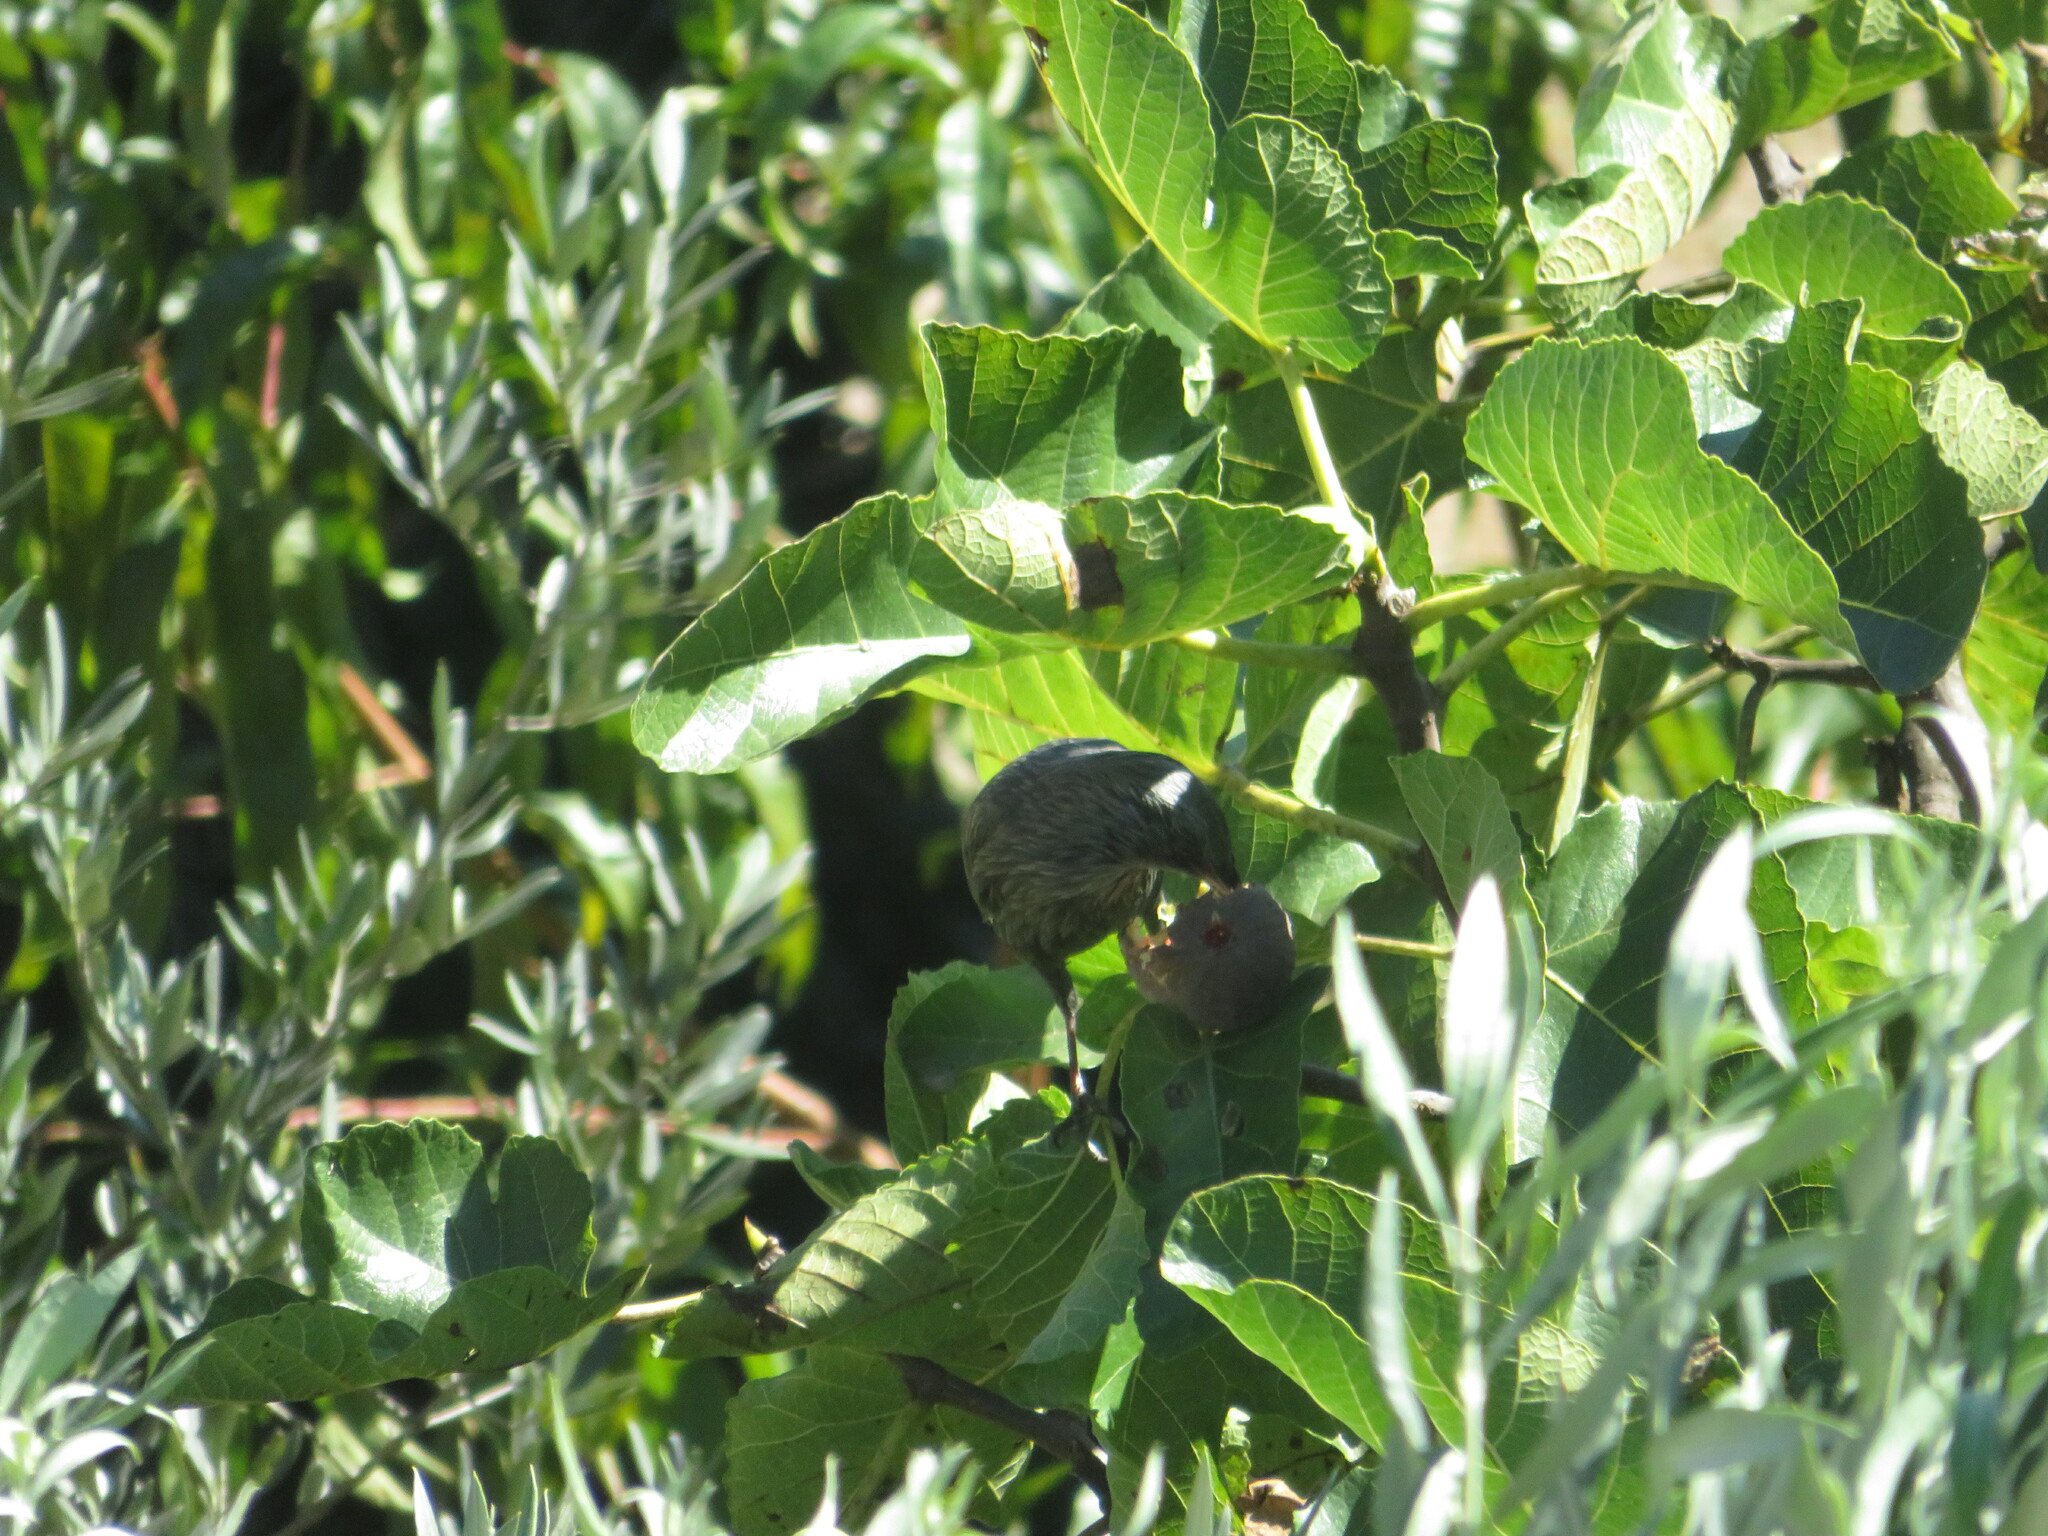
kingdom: Animalia
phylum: Chordata
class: Aves
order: Passeriformes
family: Sturnidae
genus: Sturnus
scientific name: Sturnus unicolor
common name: Spotless starling
